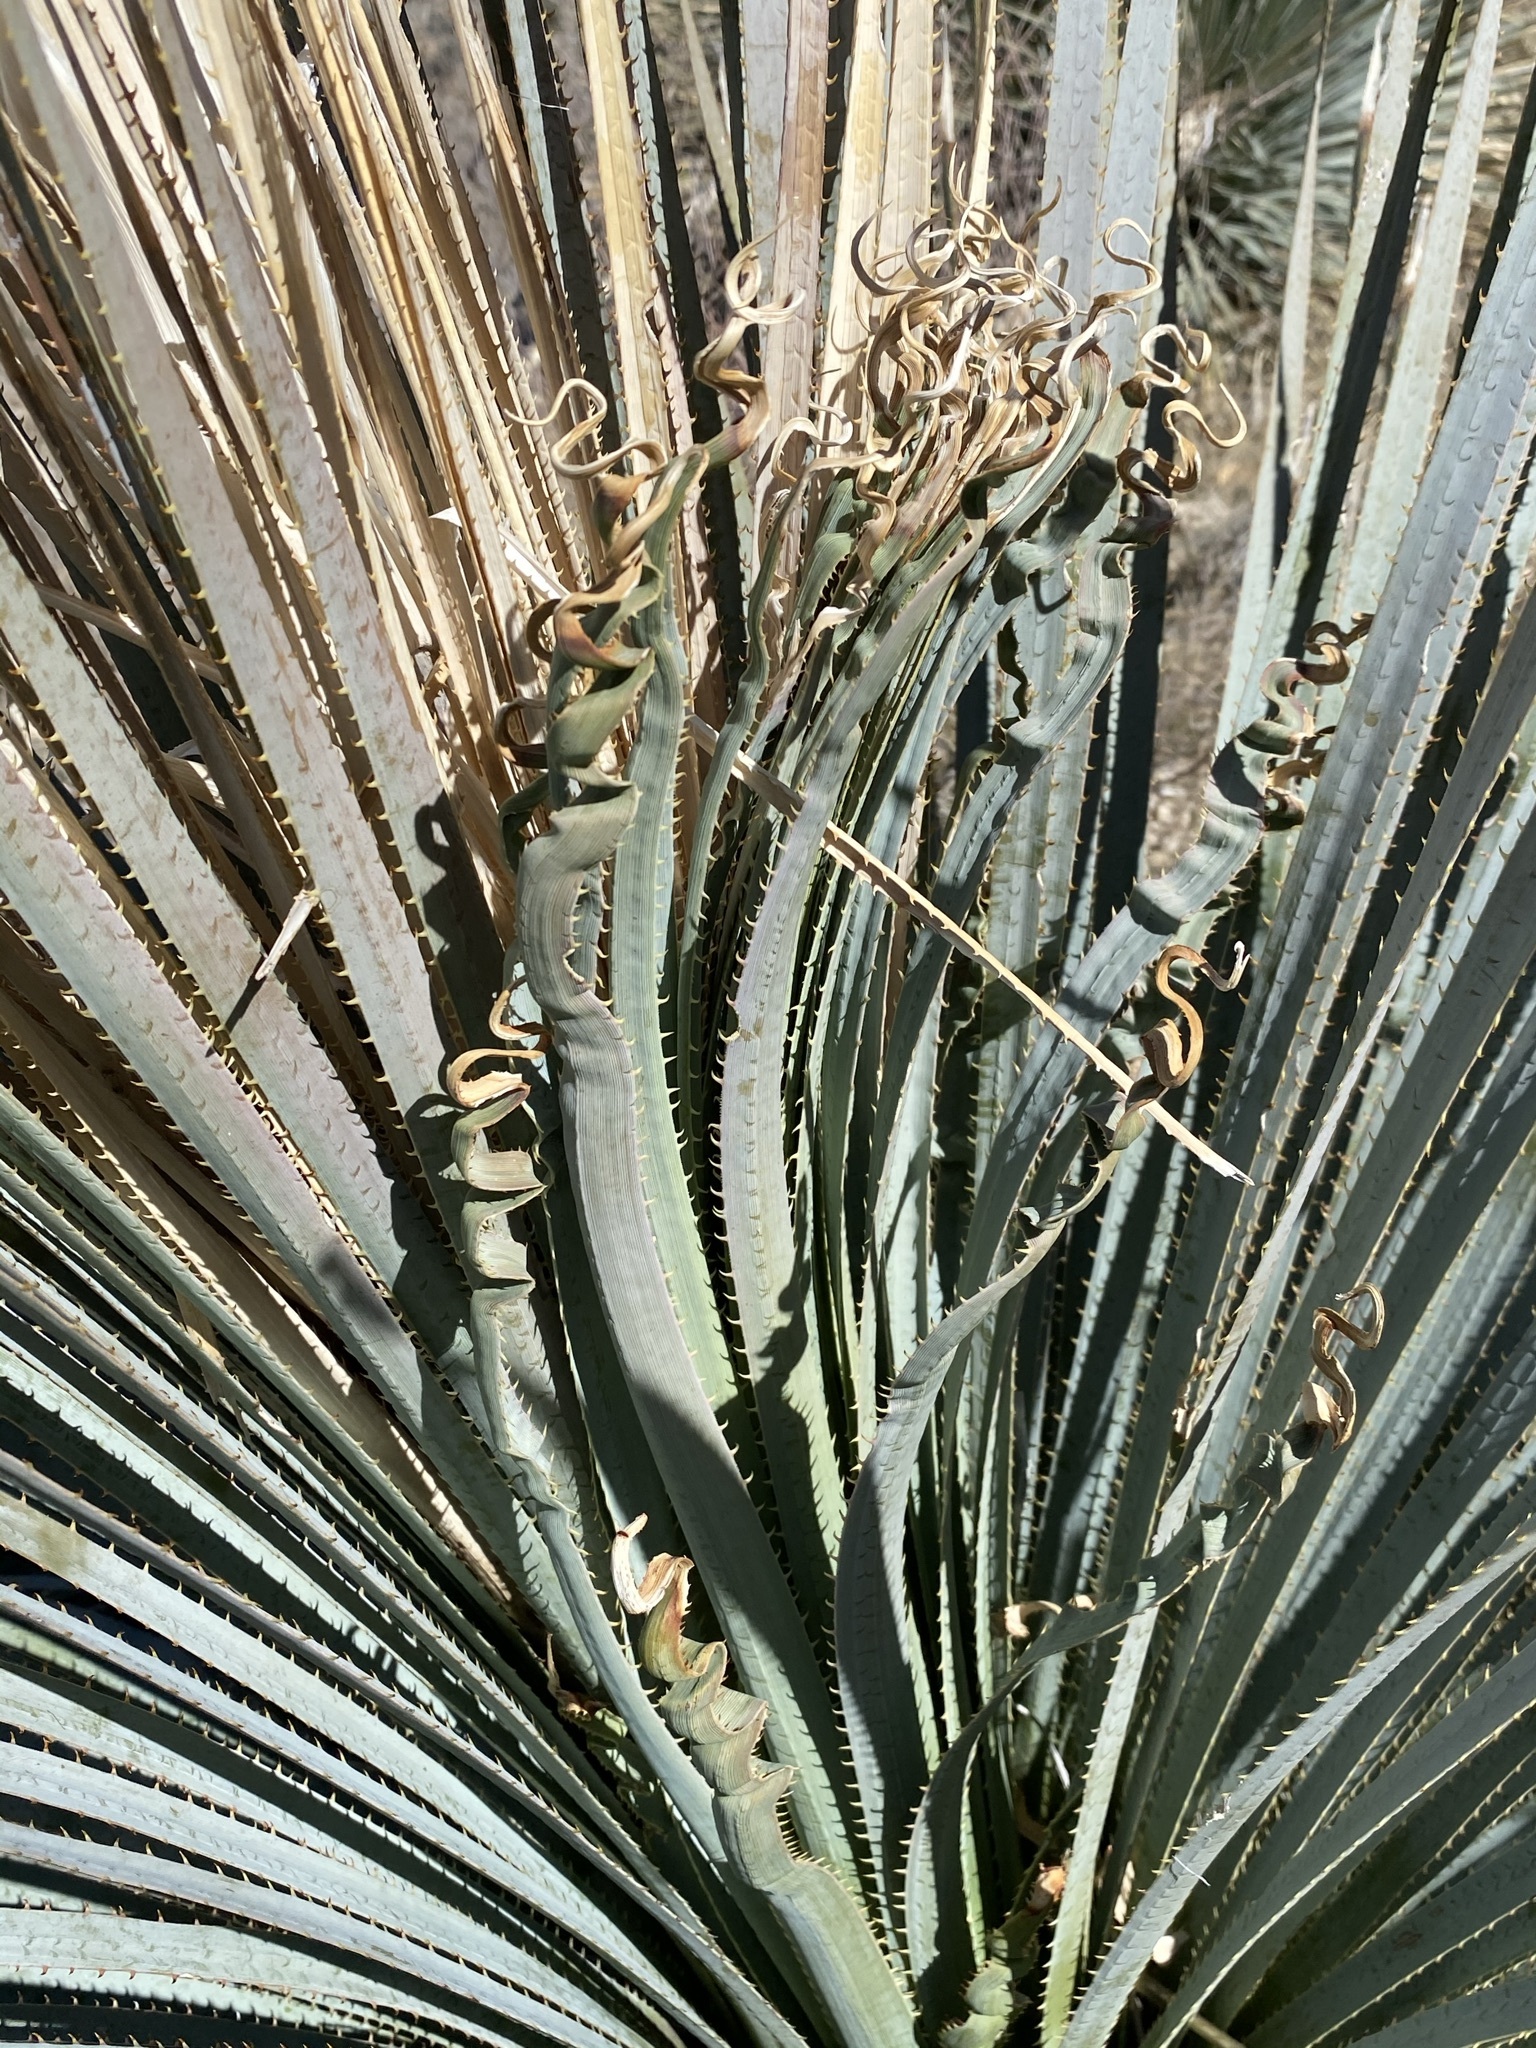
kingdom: Plantae
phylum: Tracheophyta
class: Liliopsida
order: Asparagales
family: Asparagaceae
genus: Dasylirion
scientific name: Dasylirion wheeleri
